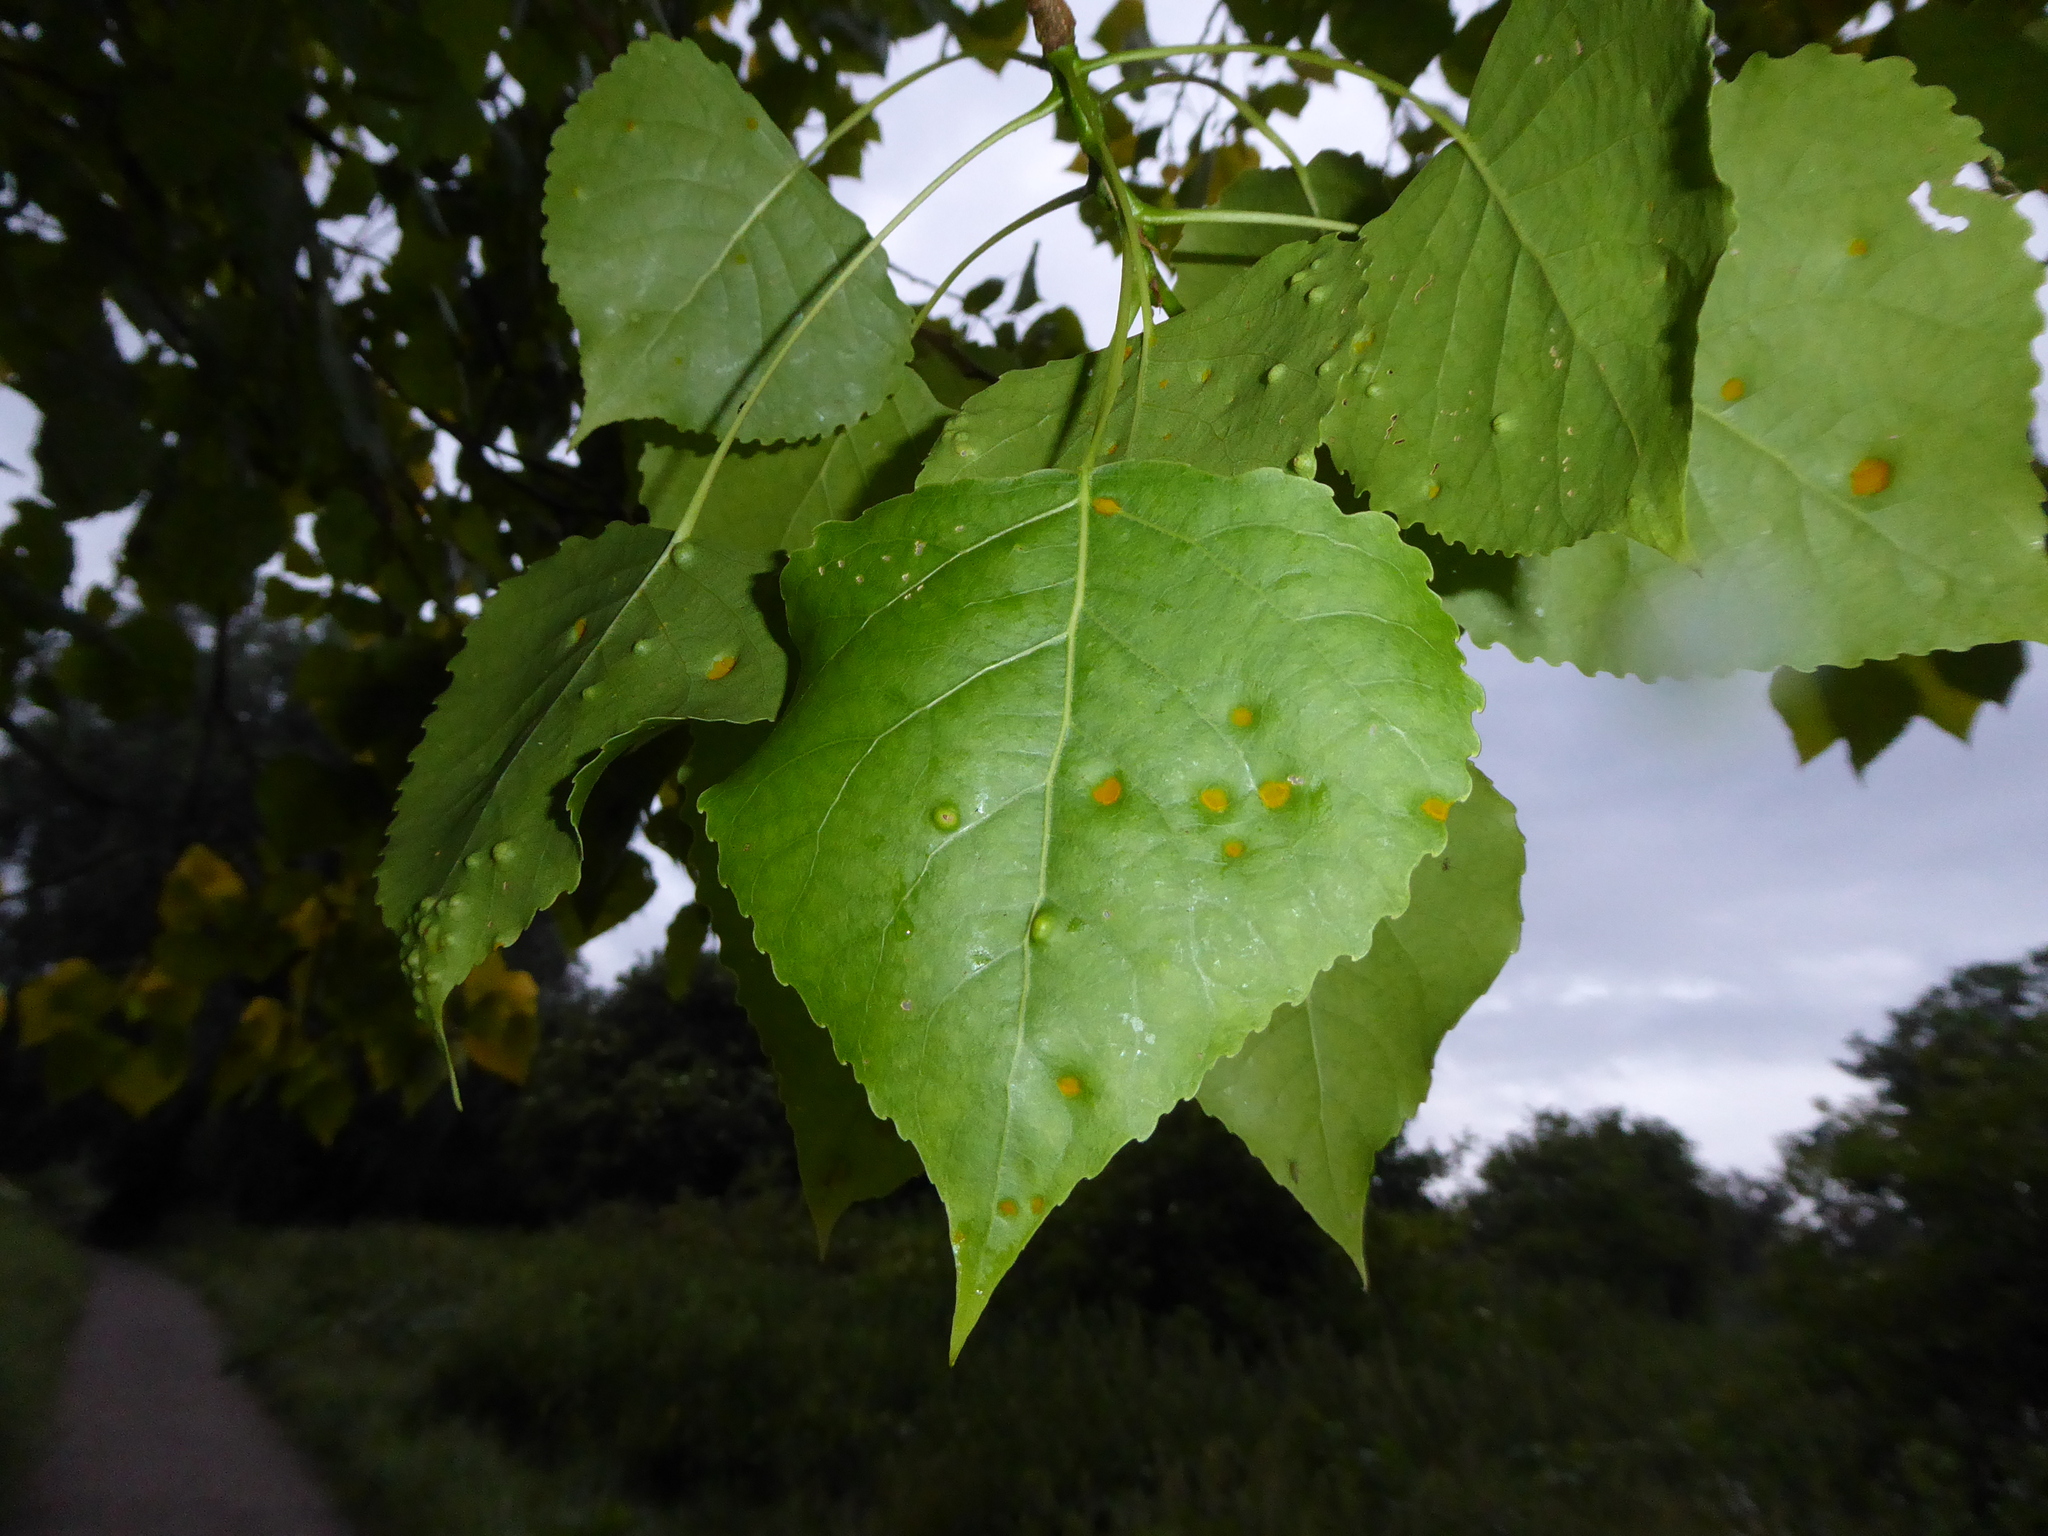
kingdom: Fungi
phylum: Ascomycota
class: Taphrinomycetes
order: Taphrinales
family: Taphrinaceae
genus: Taphrina
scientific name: Taphrina populina
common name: Poplar leaf curl
